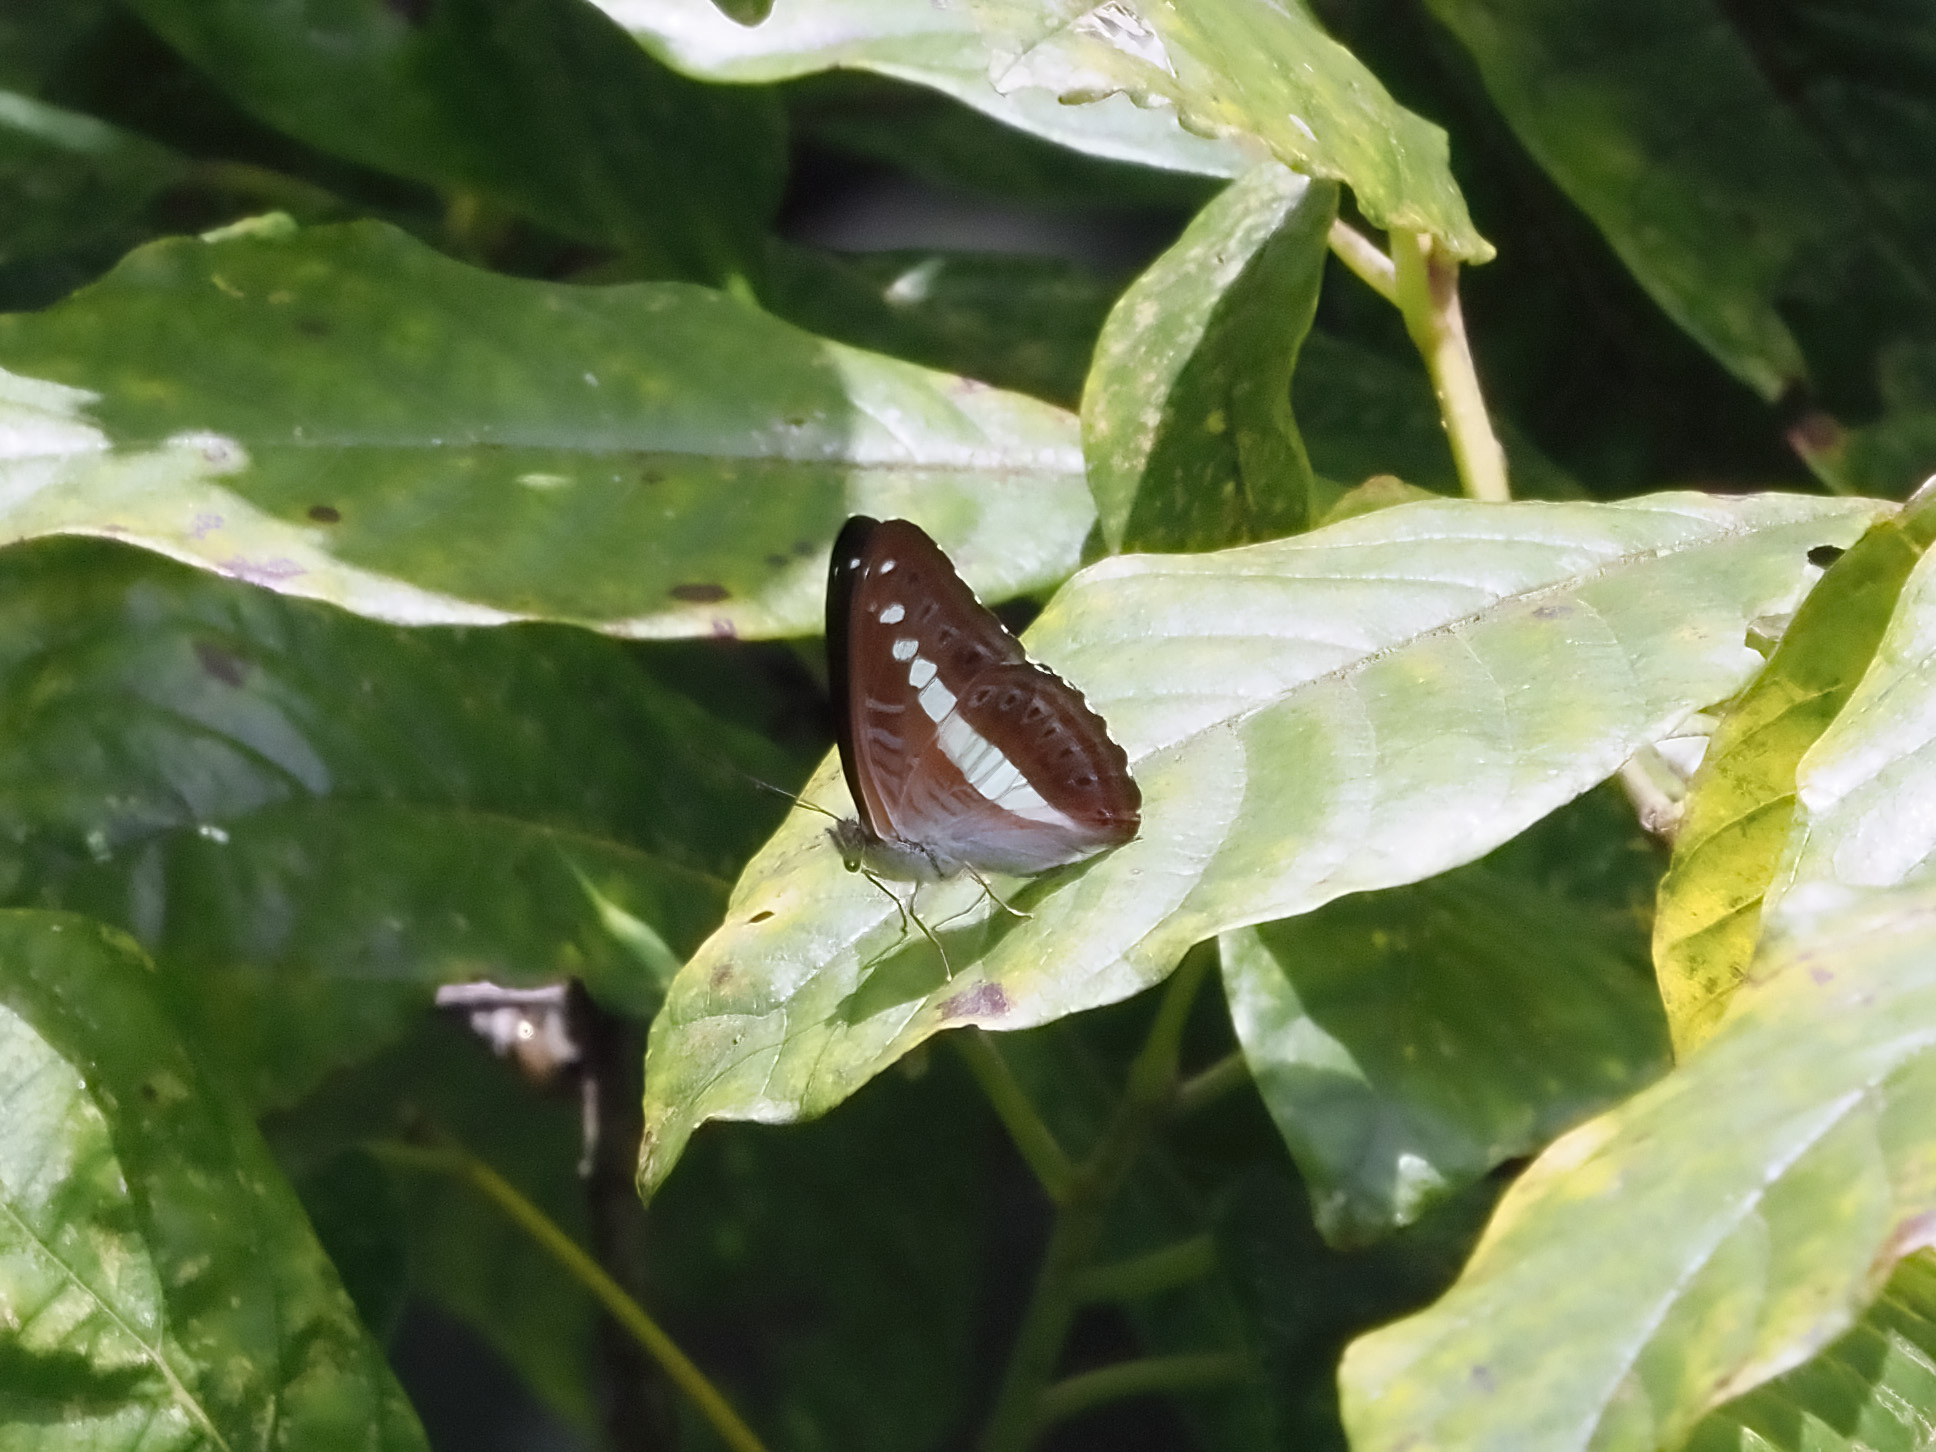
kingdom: Animalia
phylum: Arthropoda
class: Insecta
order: Lepidoptera
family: Nymphalidae
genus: Limenitis
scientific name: Limenitis Sumalia daraxa
